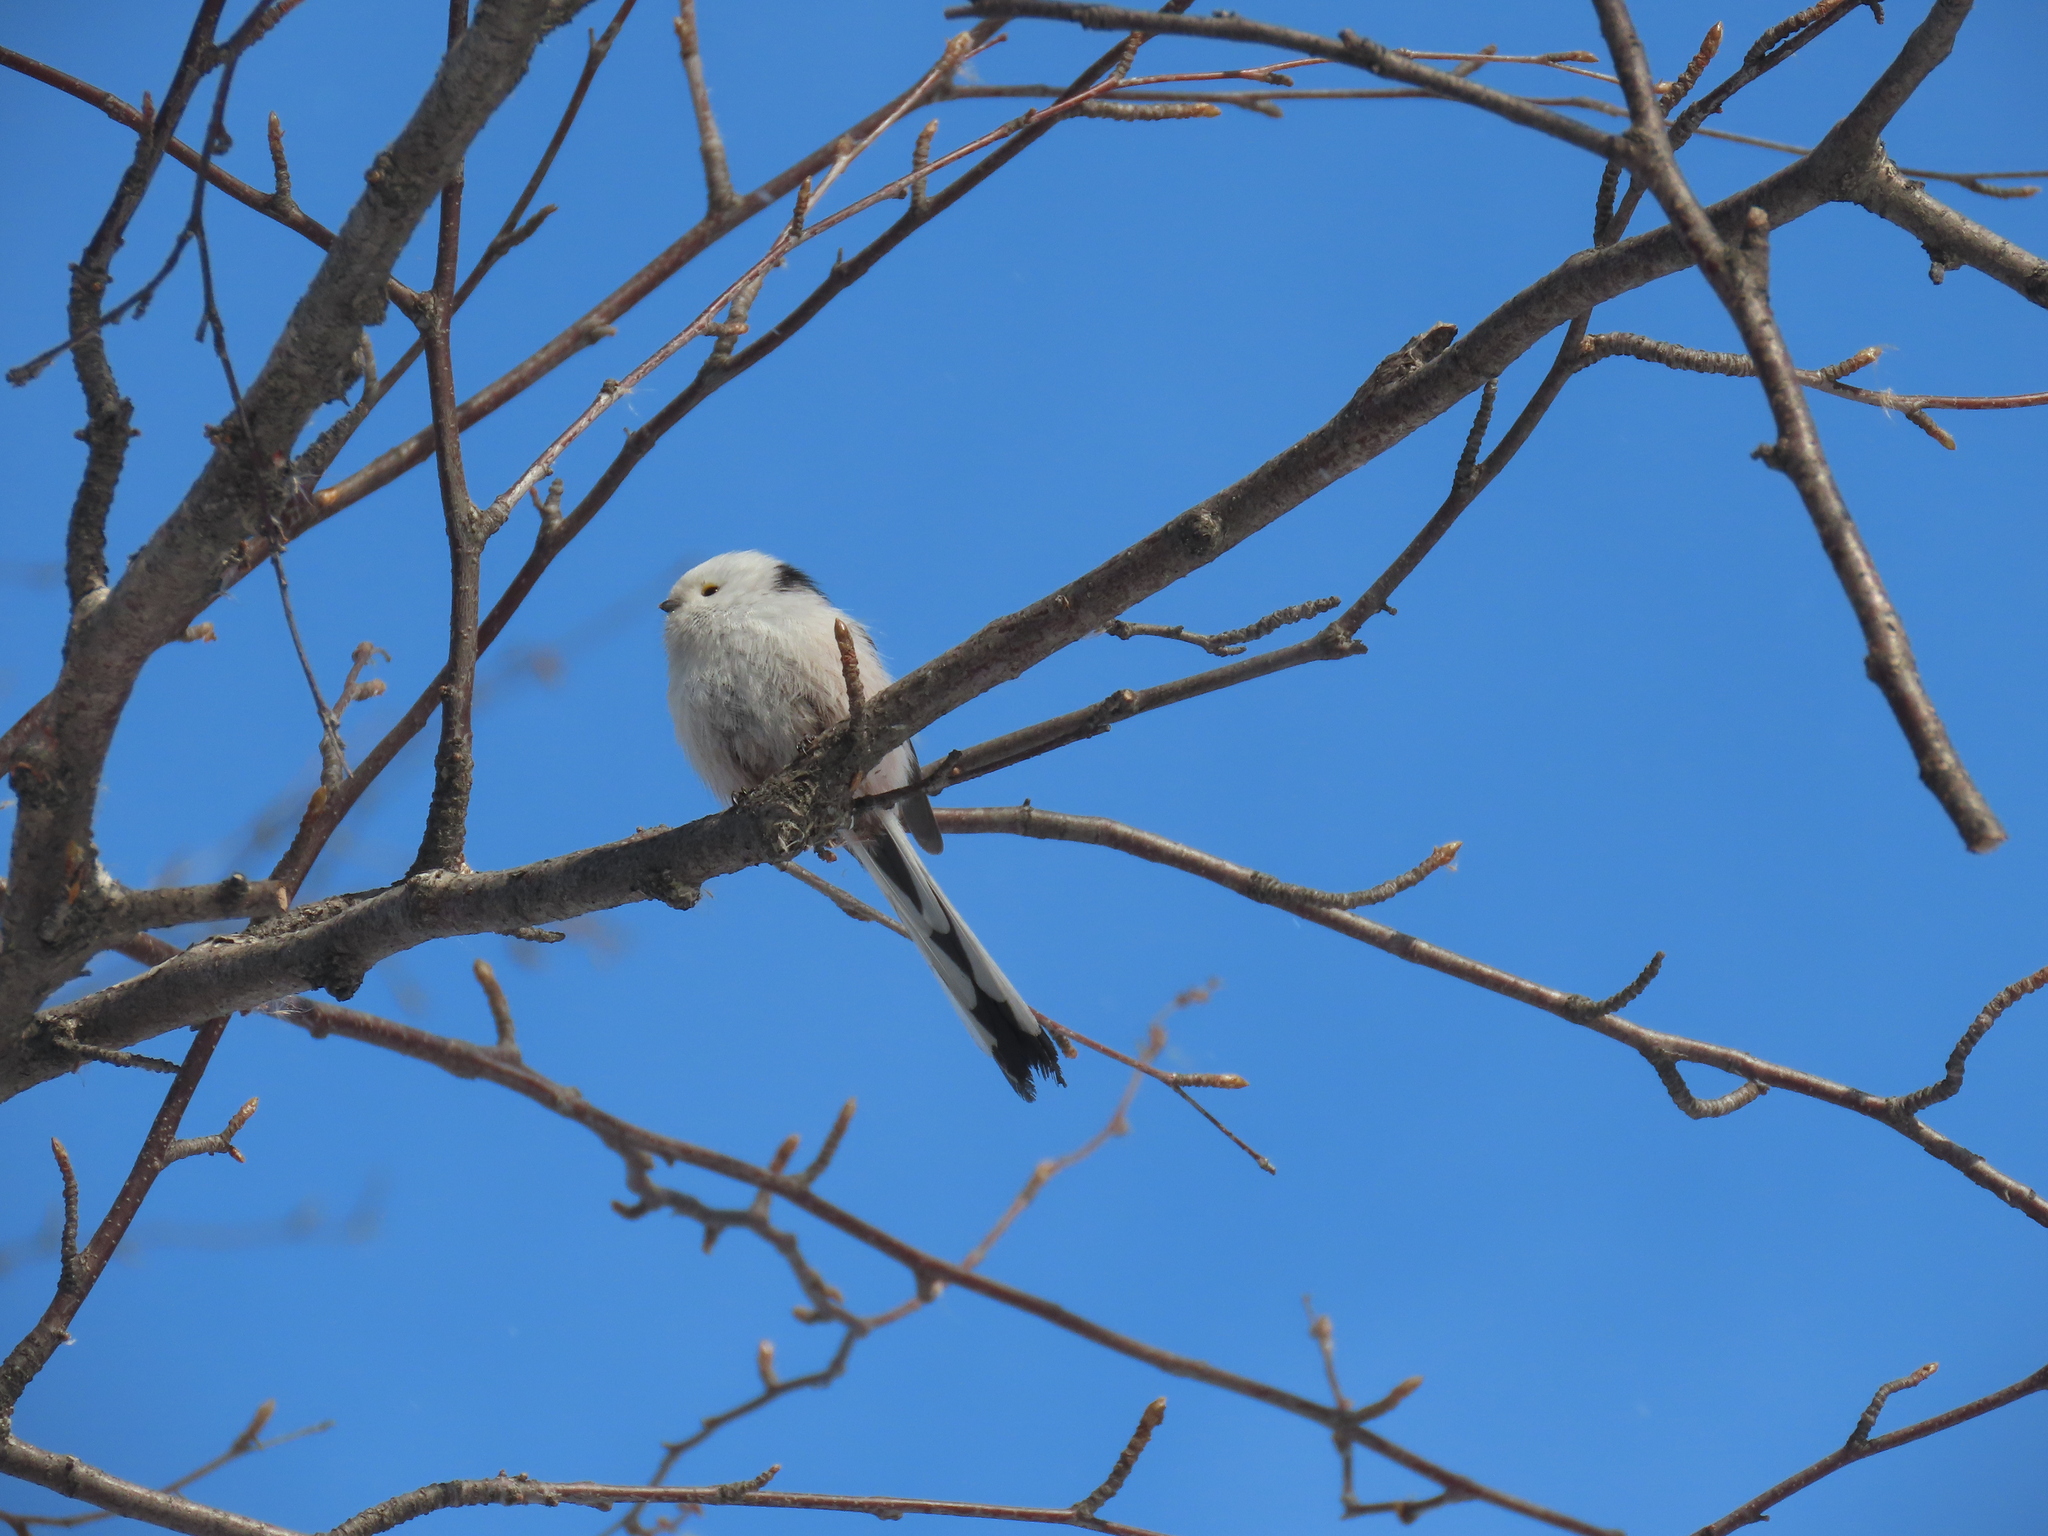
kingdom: Animalia
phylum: Chordata
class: Aves
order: Passeriformes
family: Aegithalidae
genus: Aegithalos
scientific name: Aegithalos caudatus
